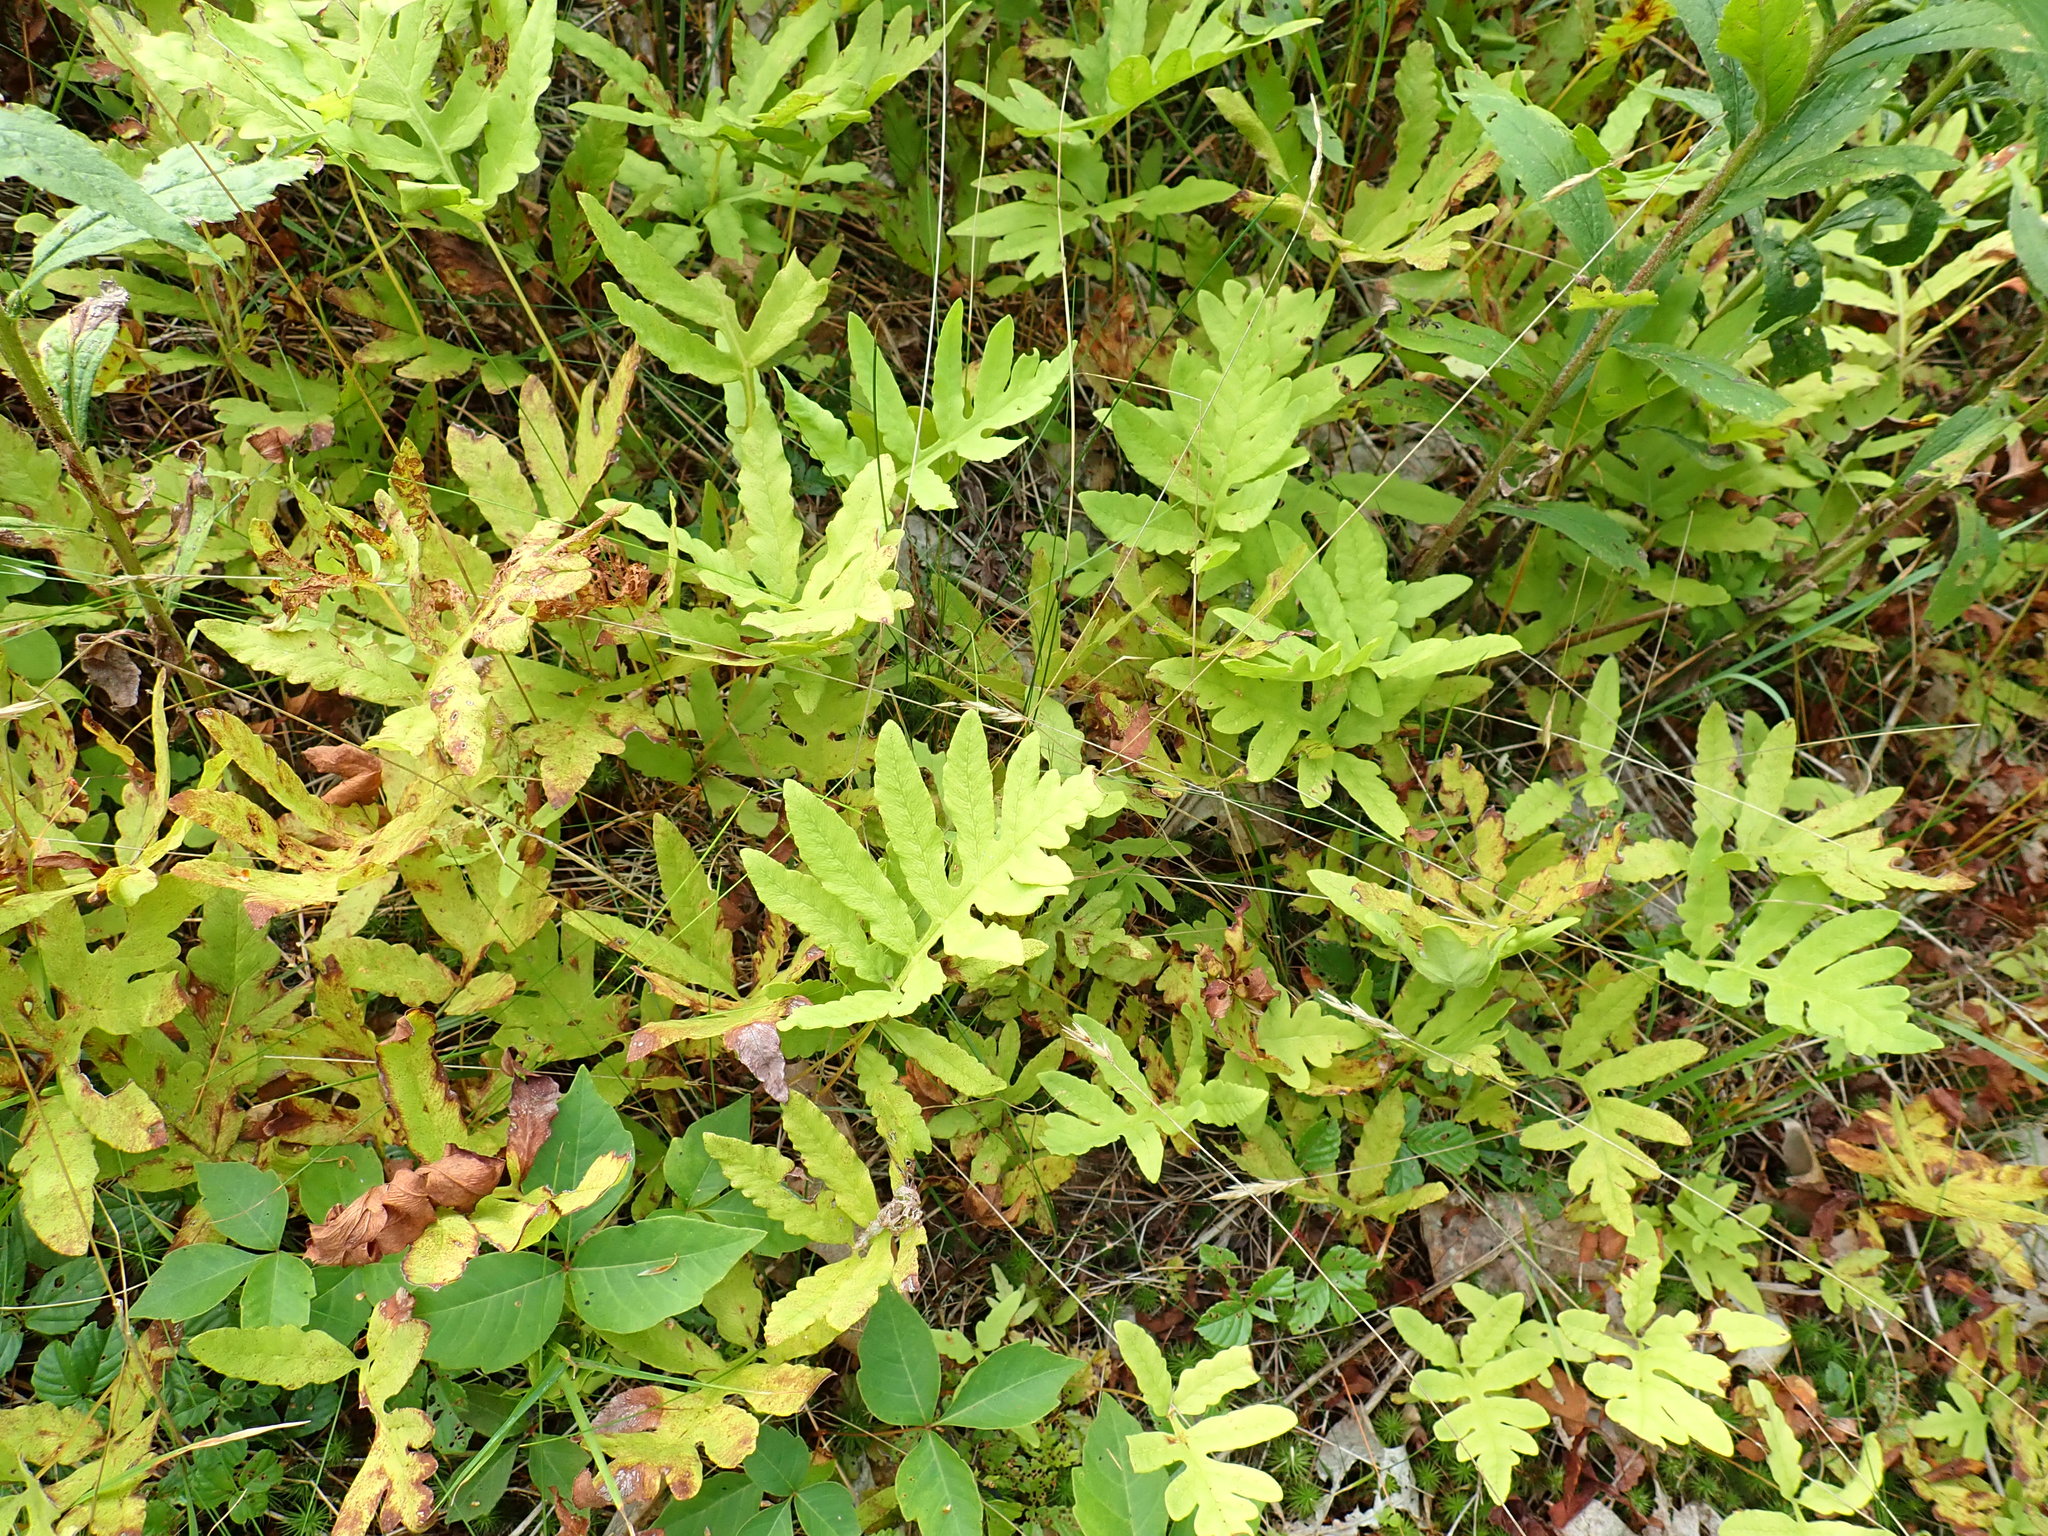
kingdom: Plantae
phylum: Tracheophyta
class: Polypodiopsida
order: Polypodiales
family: Onocleaceae
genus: Onoclea
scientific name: Onoclea sensibilis
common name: Sensitive fern
